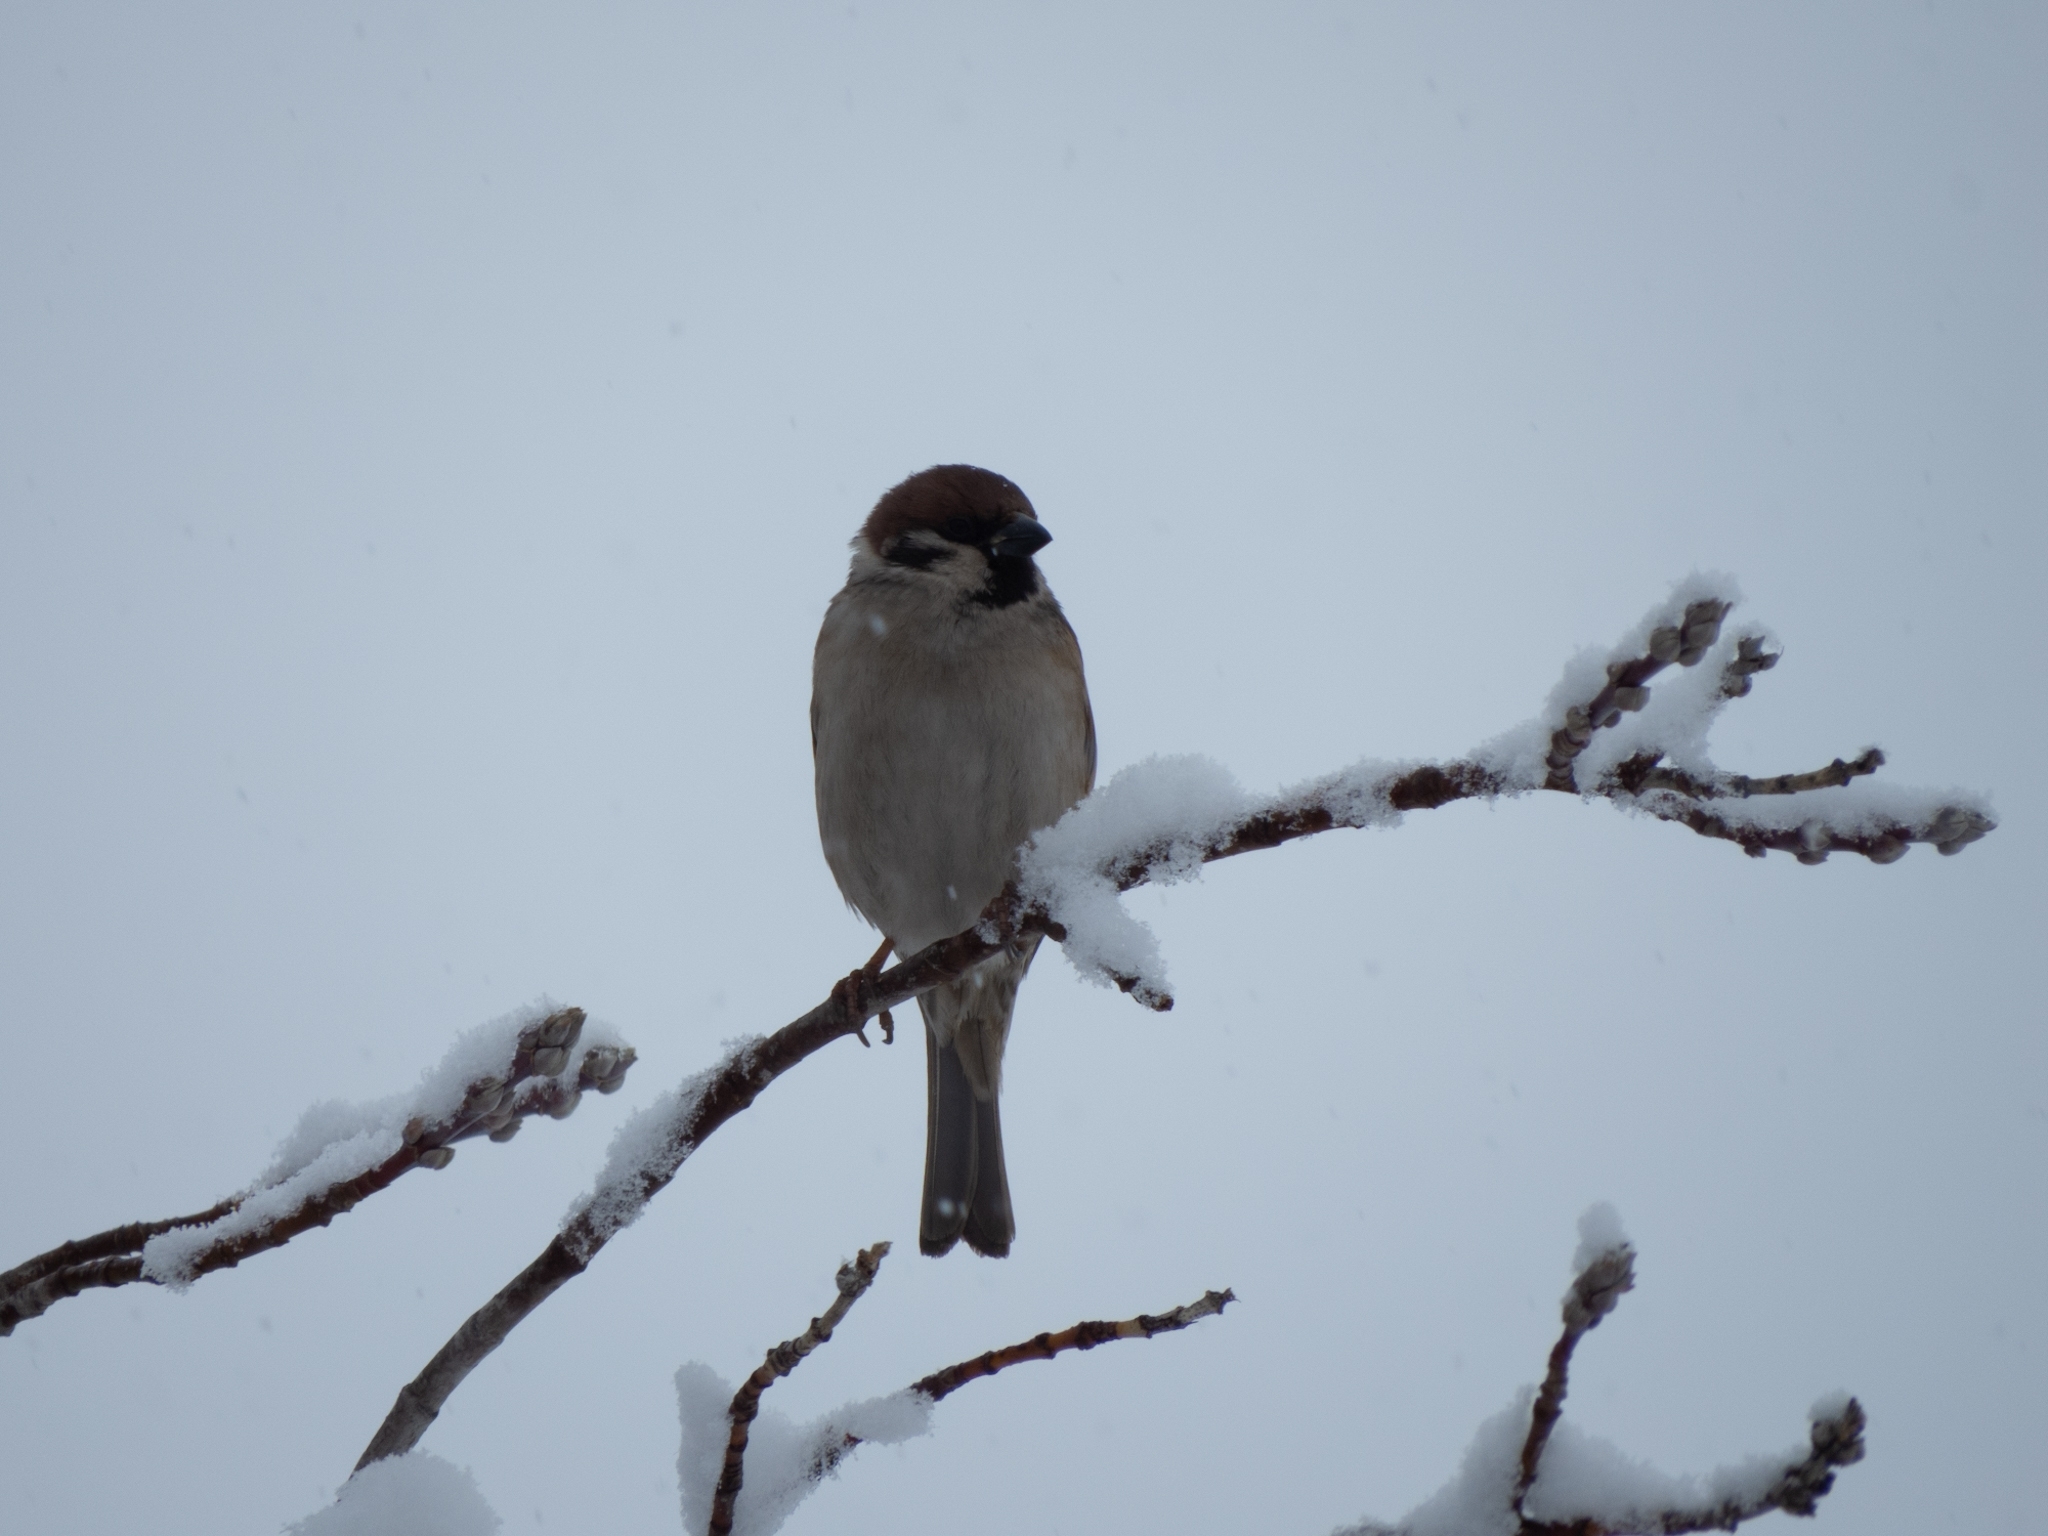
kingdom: Animalia
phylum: Chordata
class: Aves
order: Passeriformes
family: Passeridae
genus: Passer
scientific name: Passer montanus
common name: Eurasian tree sparrow
